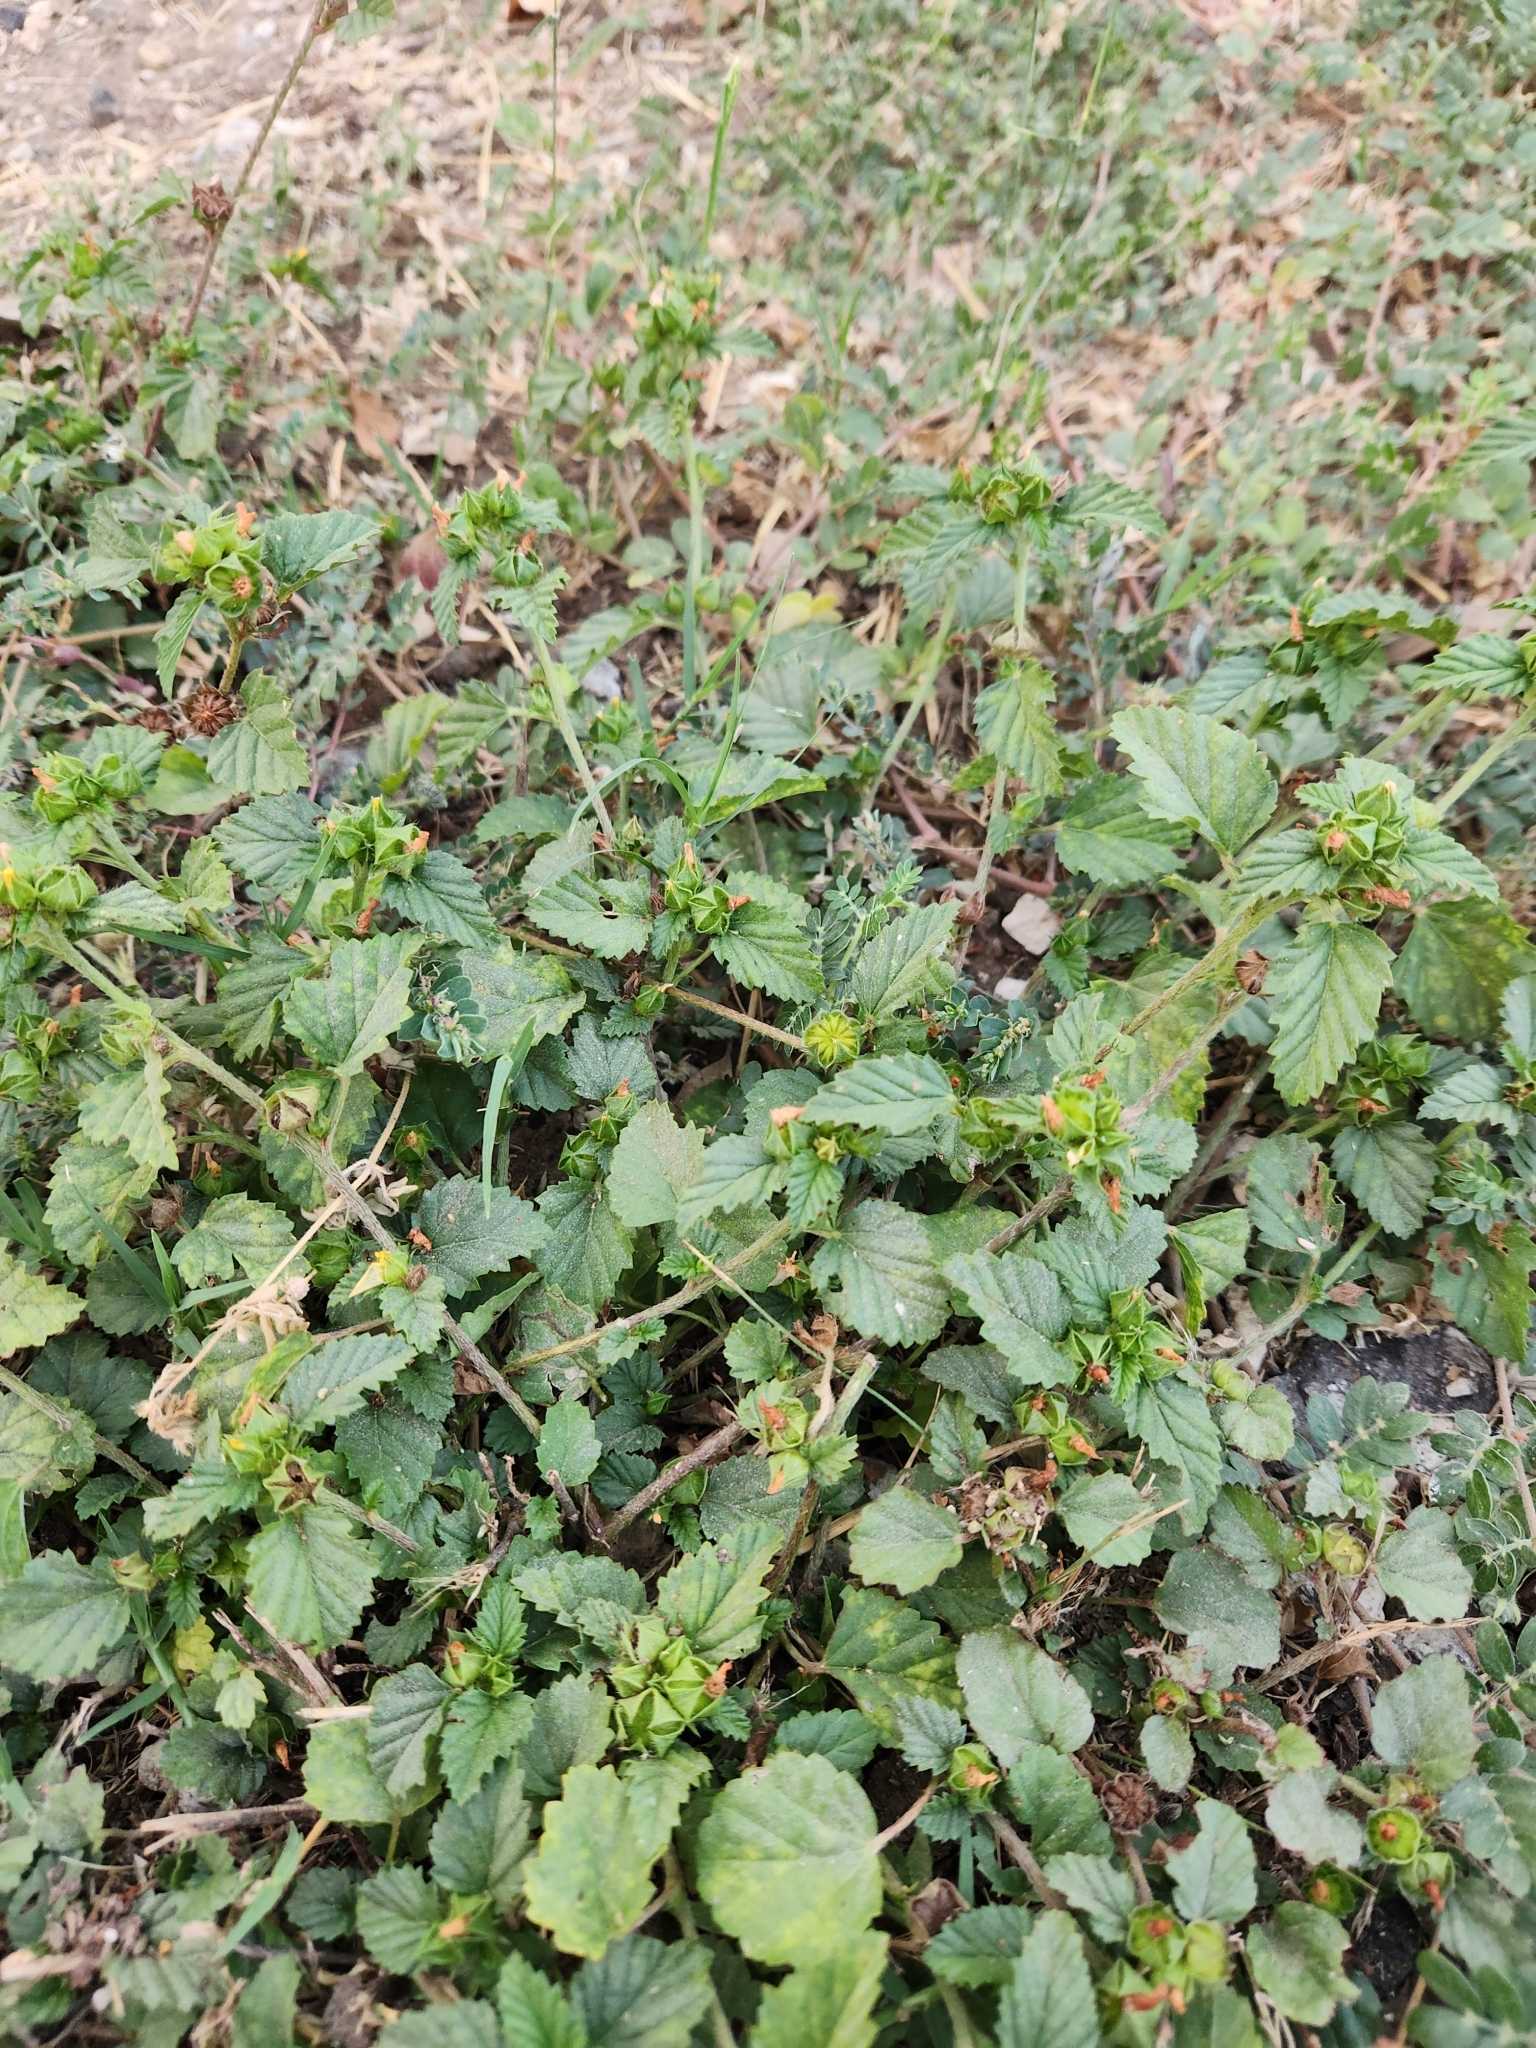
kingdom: Plantae
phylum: Tracheophyta
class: Magnoliopsida
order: Malvales
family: Malvaceae
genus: Malvastrum
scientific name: Malvastrum coromandelianum
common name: Threelobe false mallow
